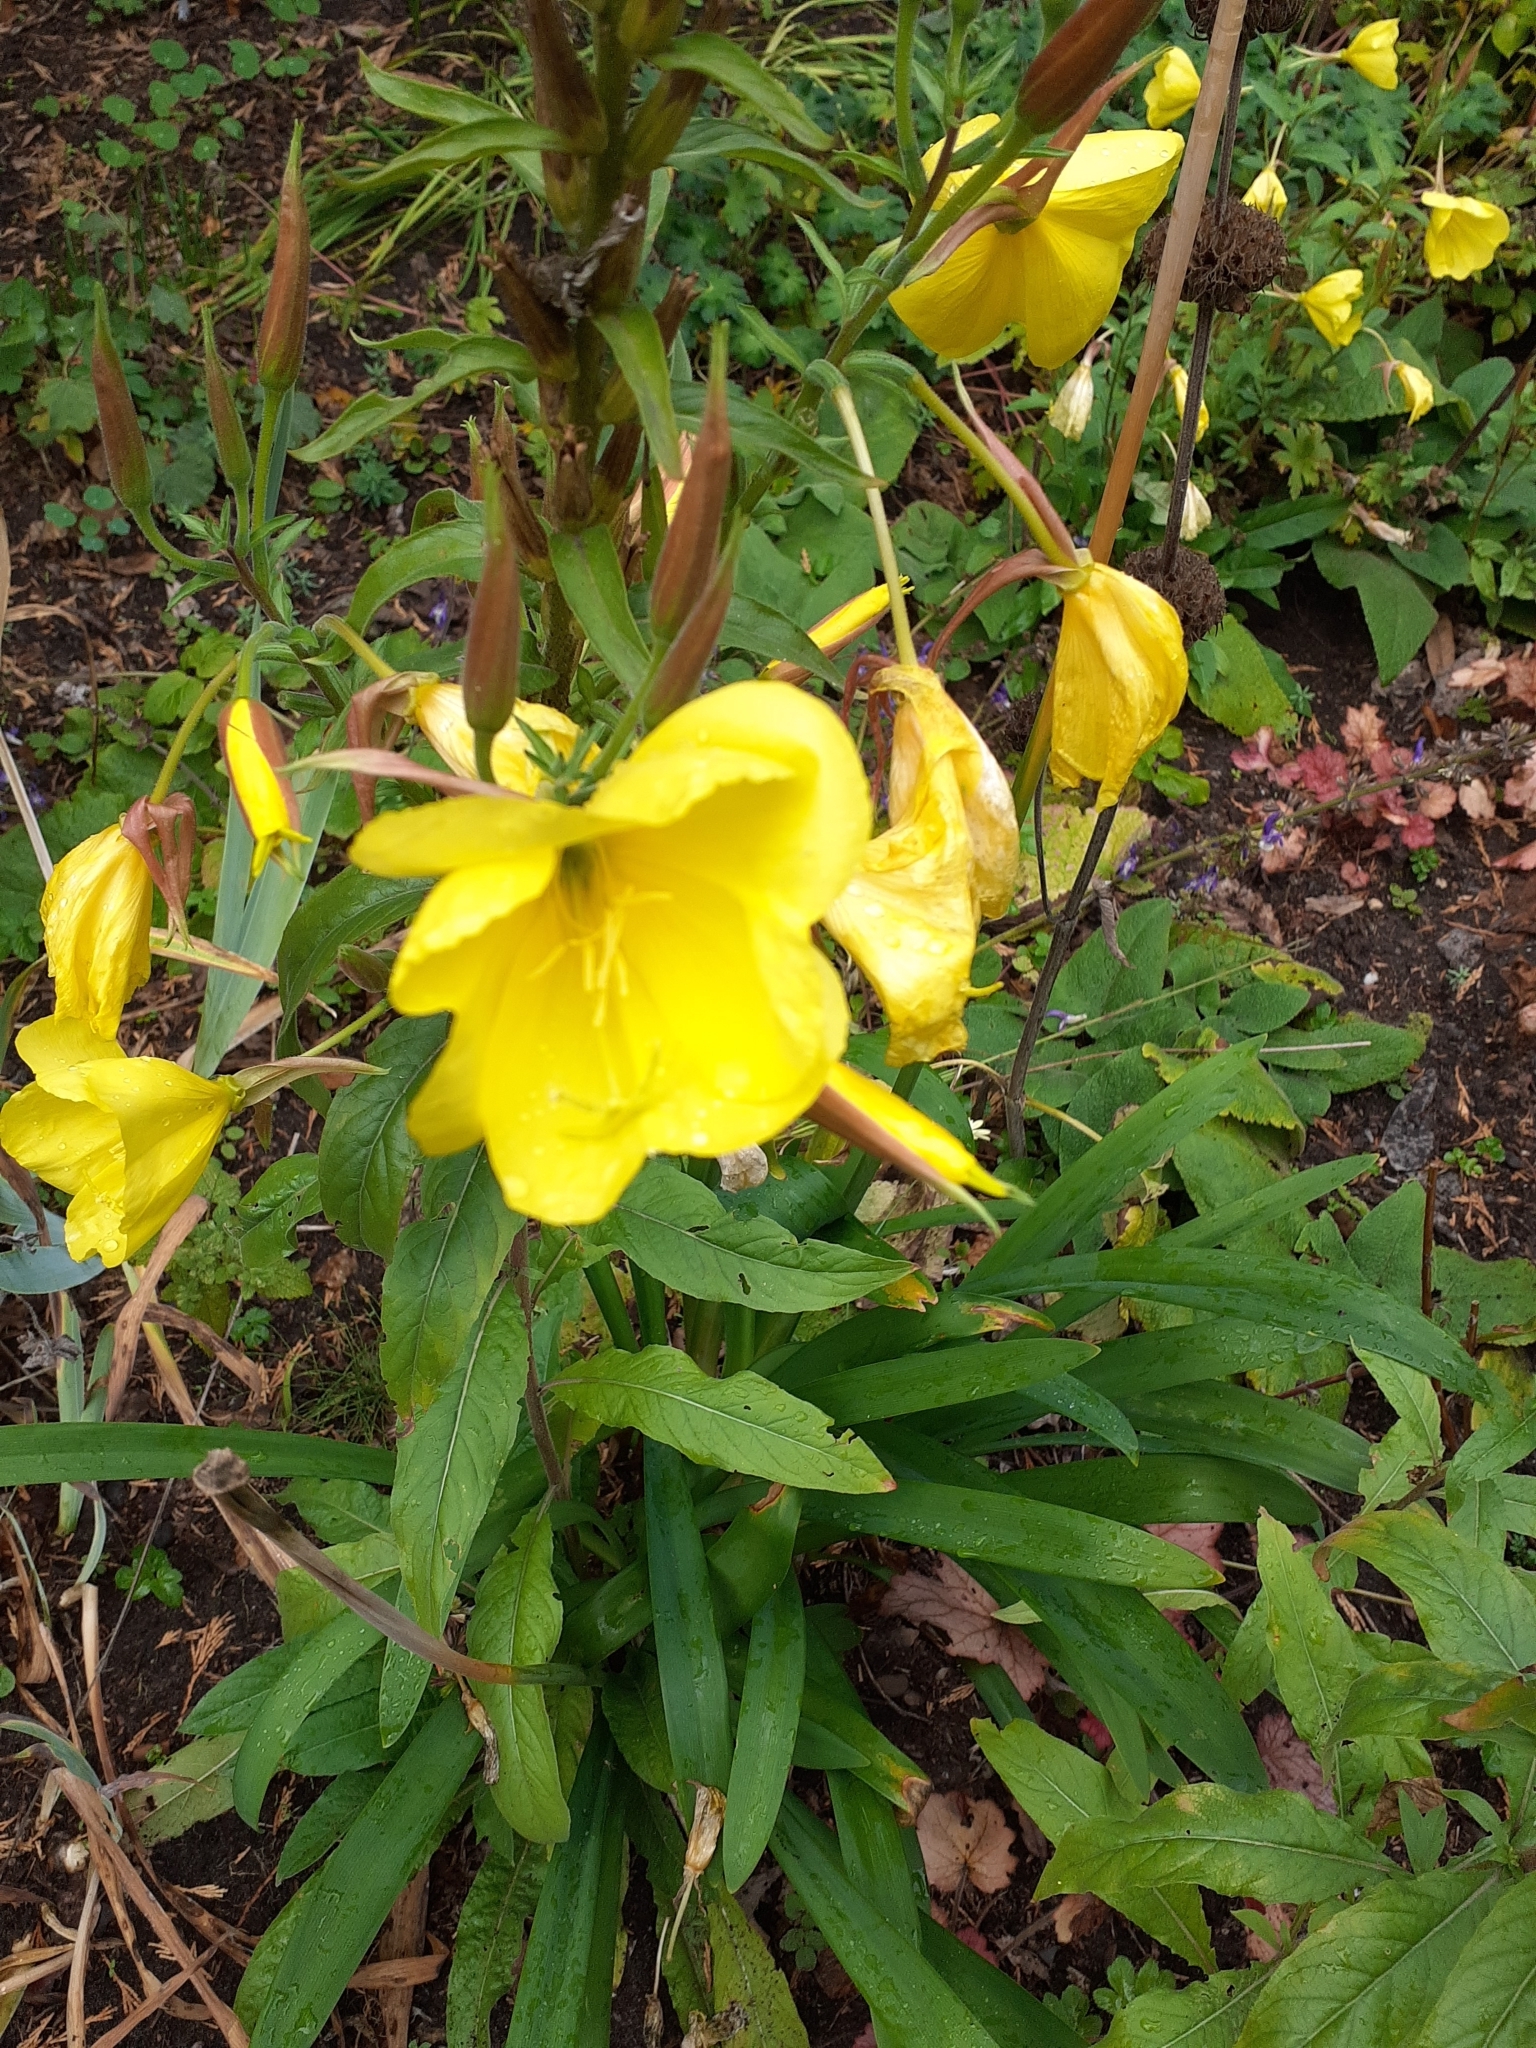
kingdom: Plantae
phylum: Tracheophyta
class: Magnoliopsida
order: Myrtales
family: Onagraceae
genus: Oenothera
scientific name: Oenothera glazioviana
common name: Large-flowered evening-primrose
